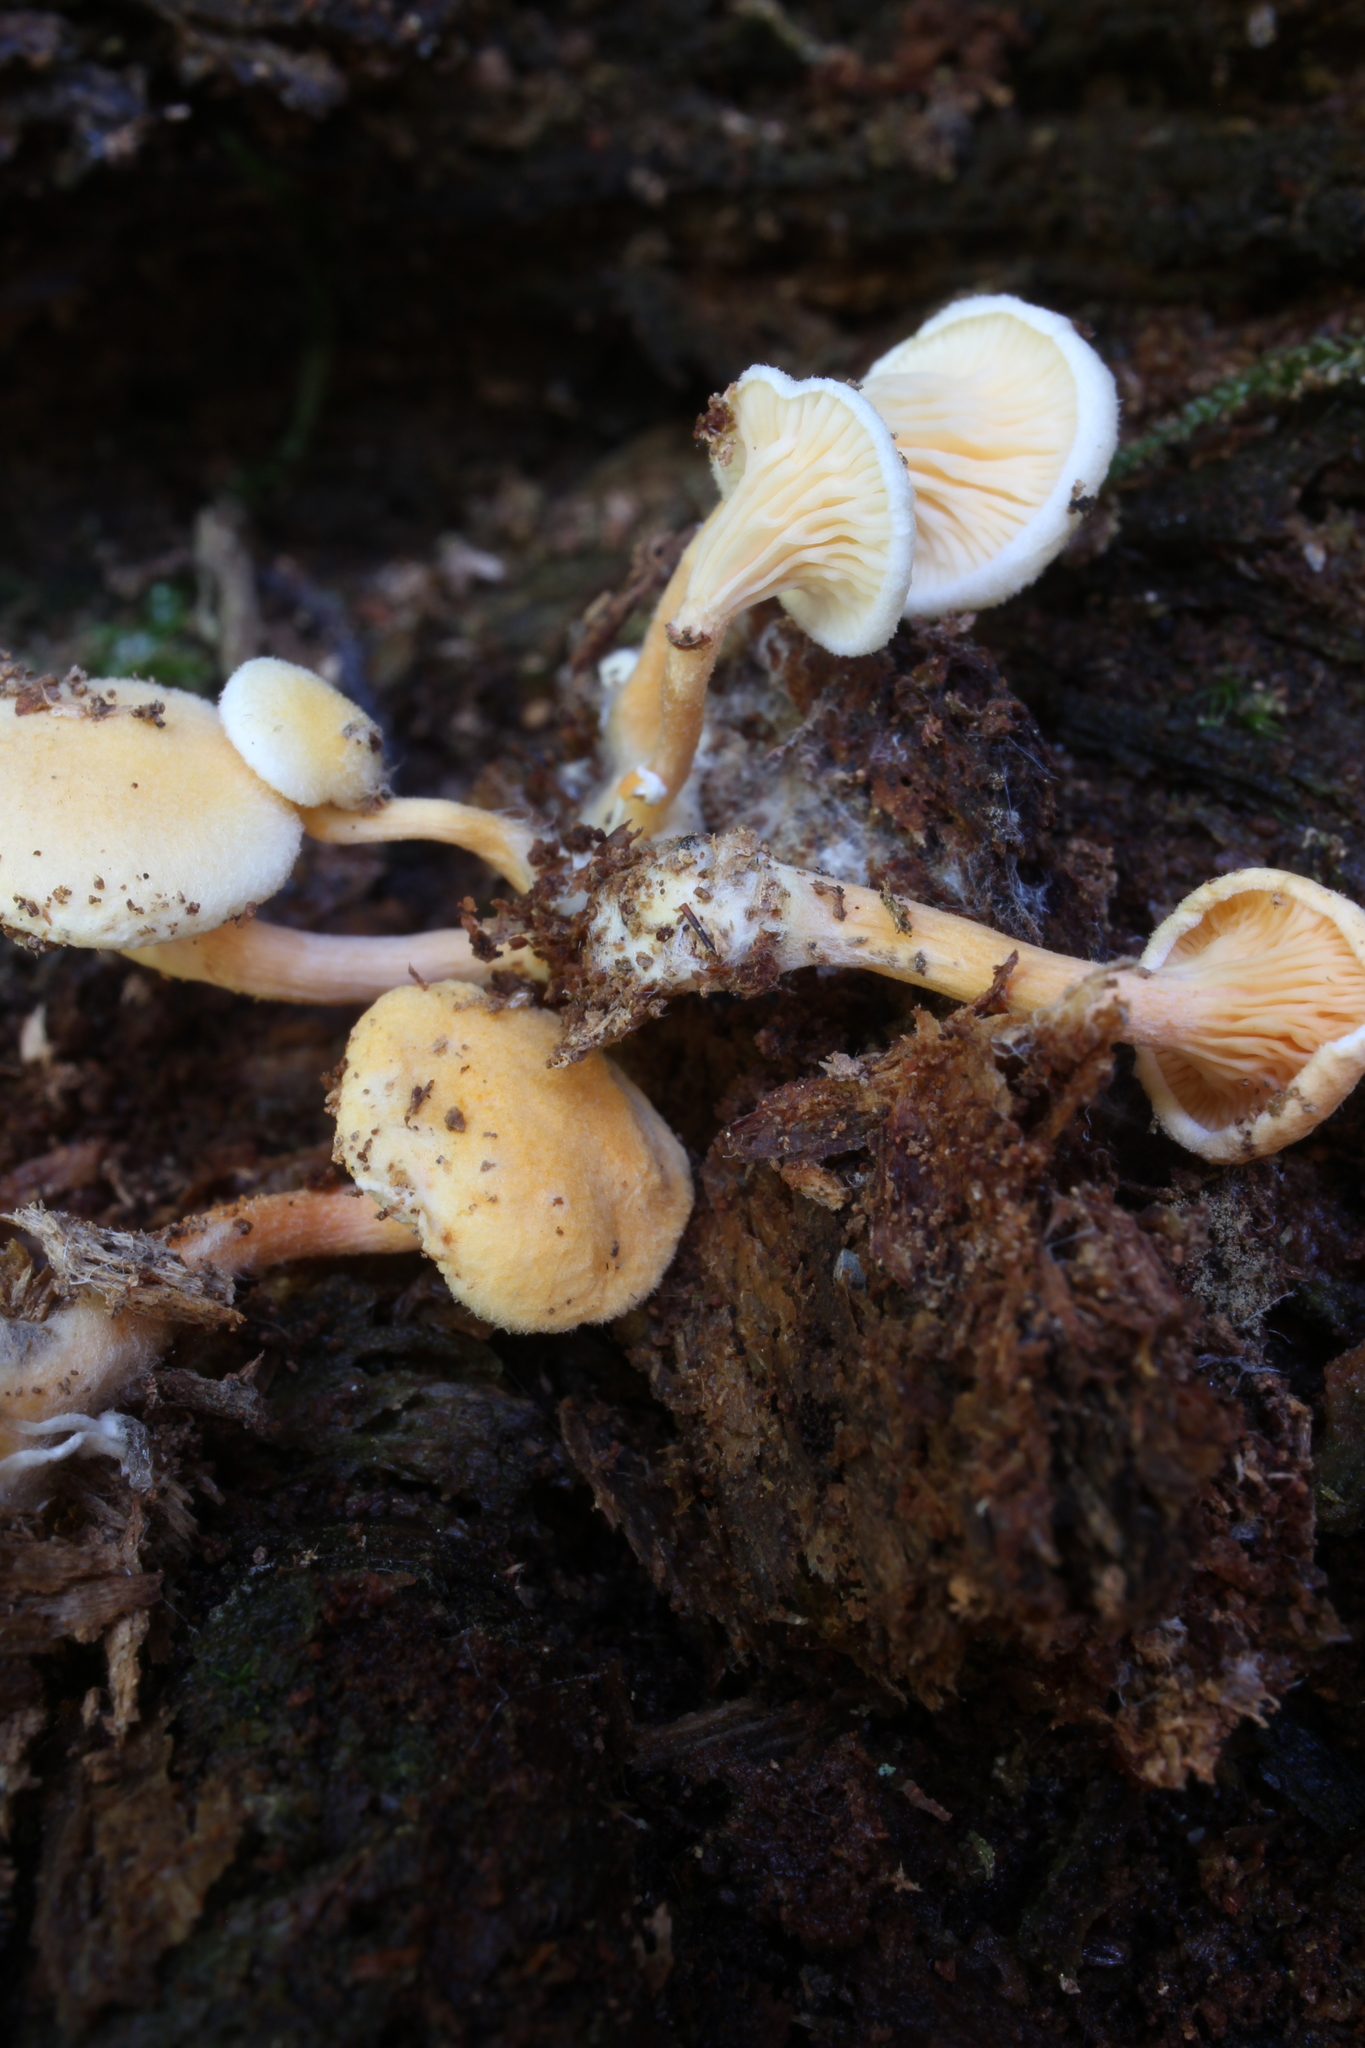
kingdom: Fungi
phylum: Basidiomycota
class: Agaricomycetes
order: Boletales
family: Hygrophoropsidaceae
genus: Hygrophoropsis
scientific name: Hygrophoropsis aurantiaca
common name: False chanterelle
